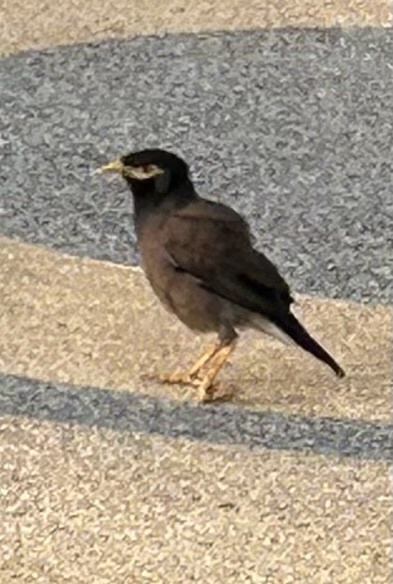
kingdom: Animalia
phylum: Chordata
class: Aves
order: Passeriformes
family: Sturnidae
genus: Acridotheres
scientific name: Acridotheres tristis
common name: Common myna
